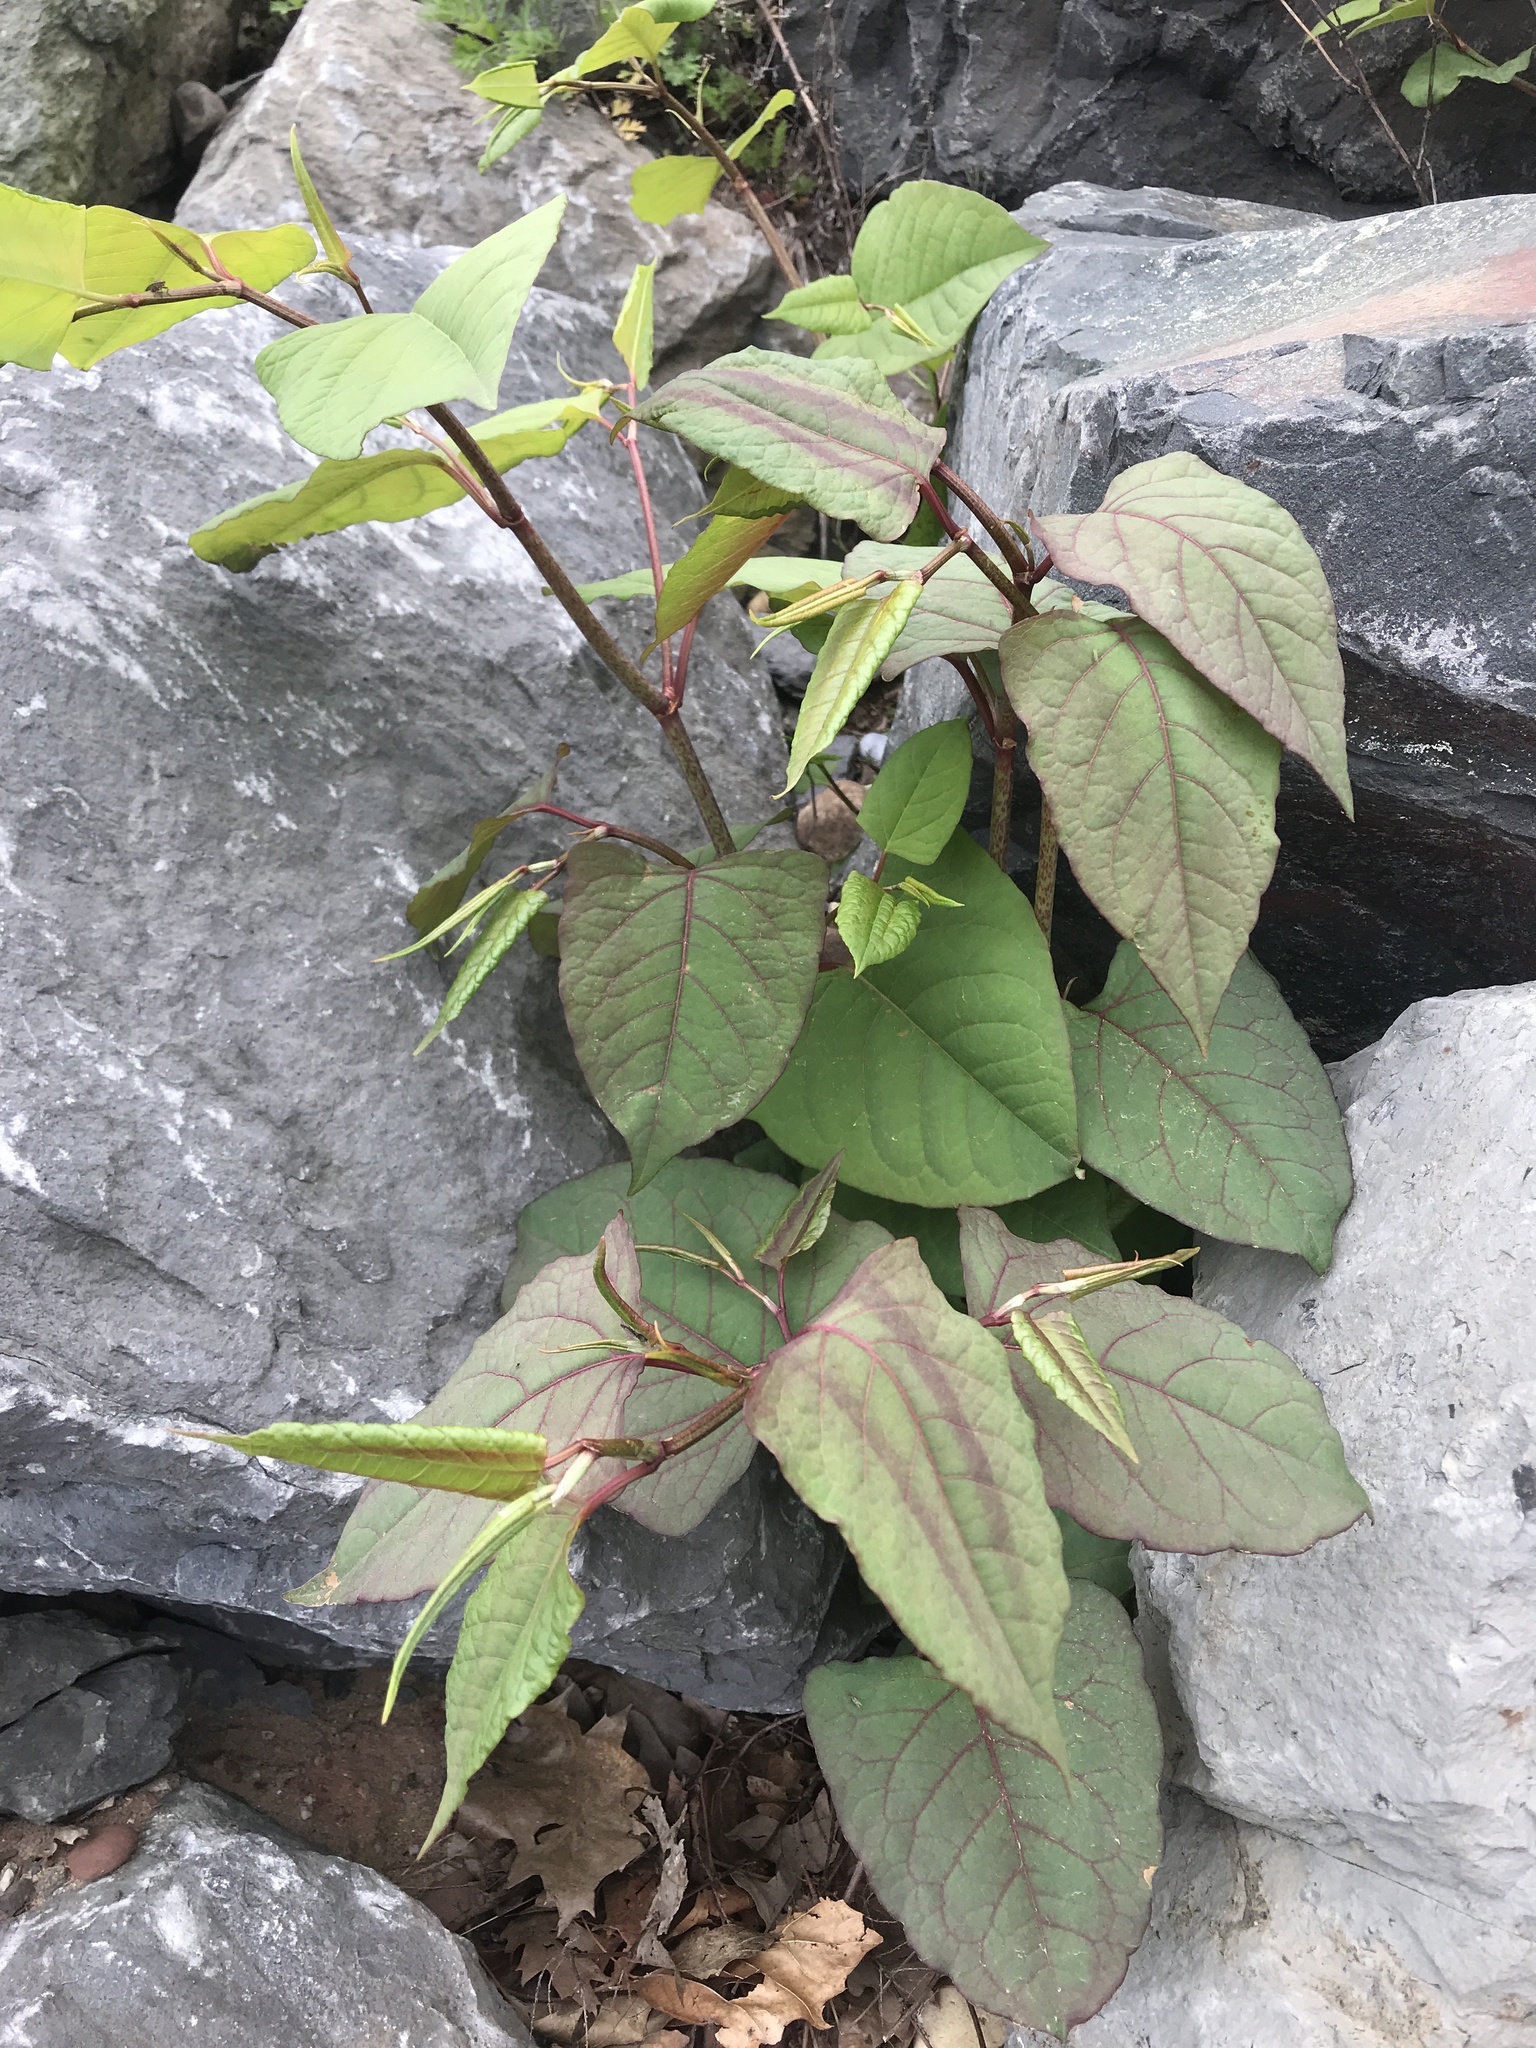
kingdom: Plantae
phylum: Tracheophyta
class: Magnoliopsida
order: Caryophyllales
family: Polygonaceae
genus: Reynoutria
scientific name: Reynoutria japonica
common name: Japanese knotweed
